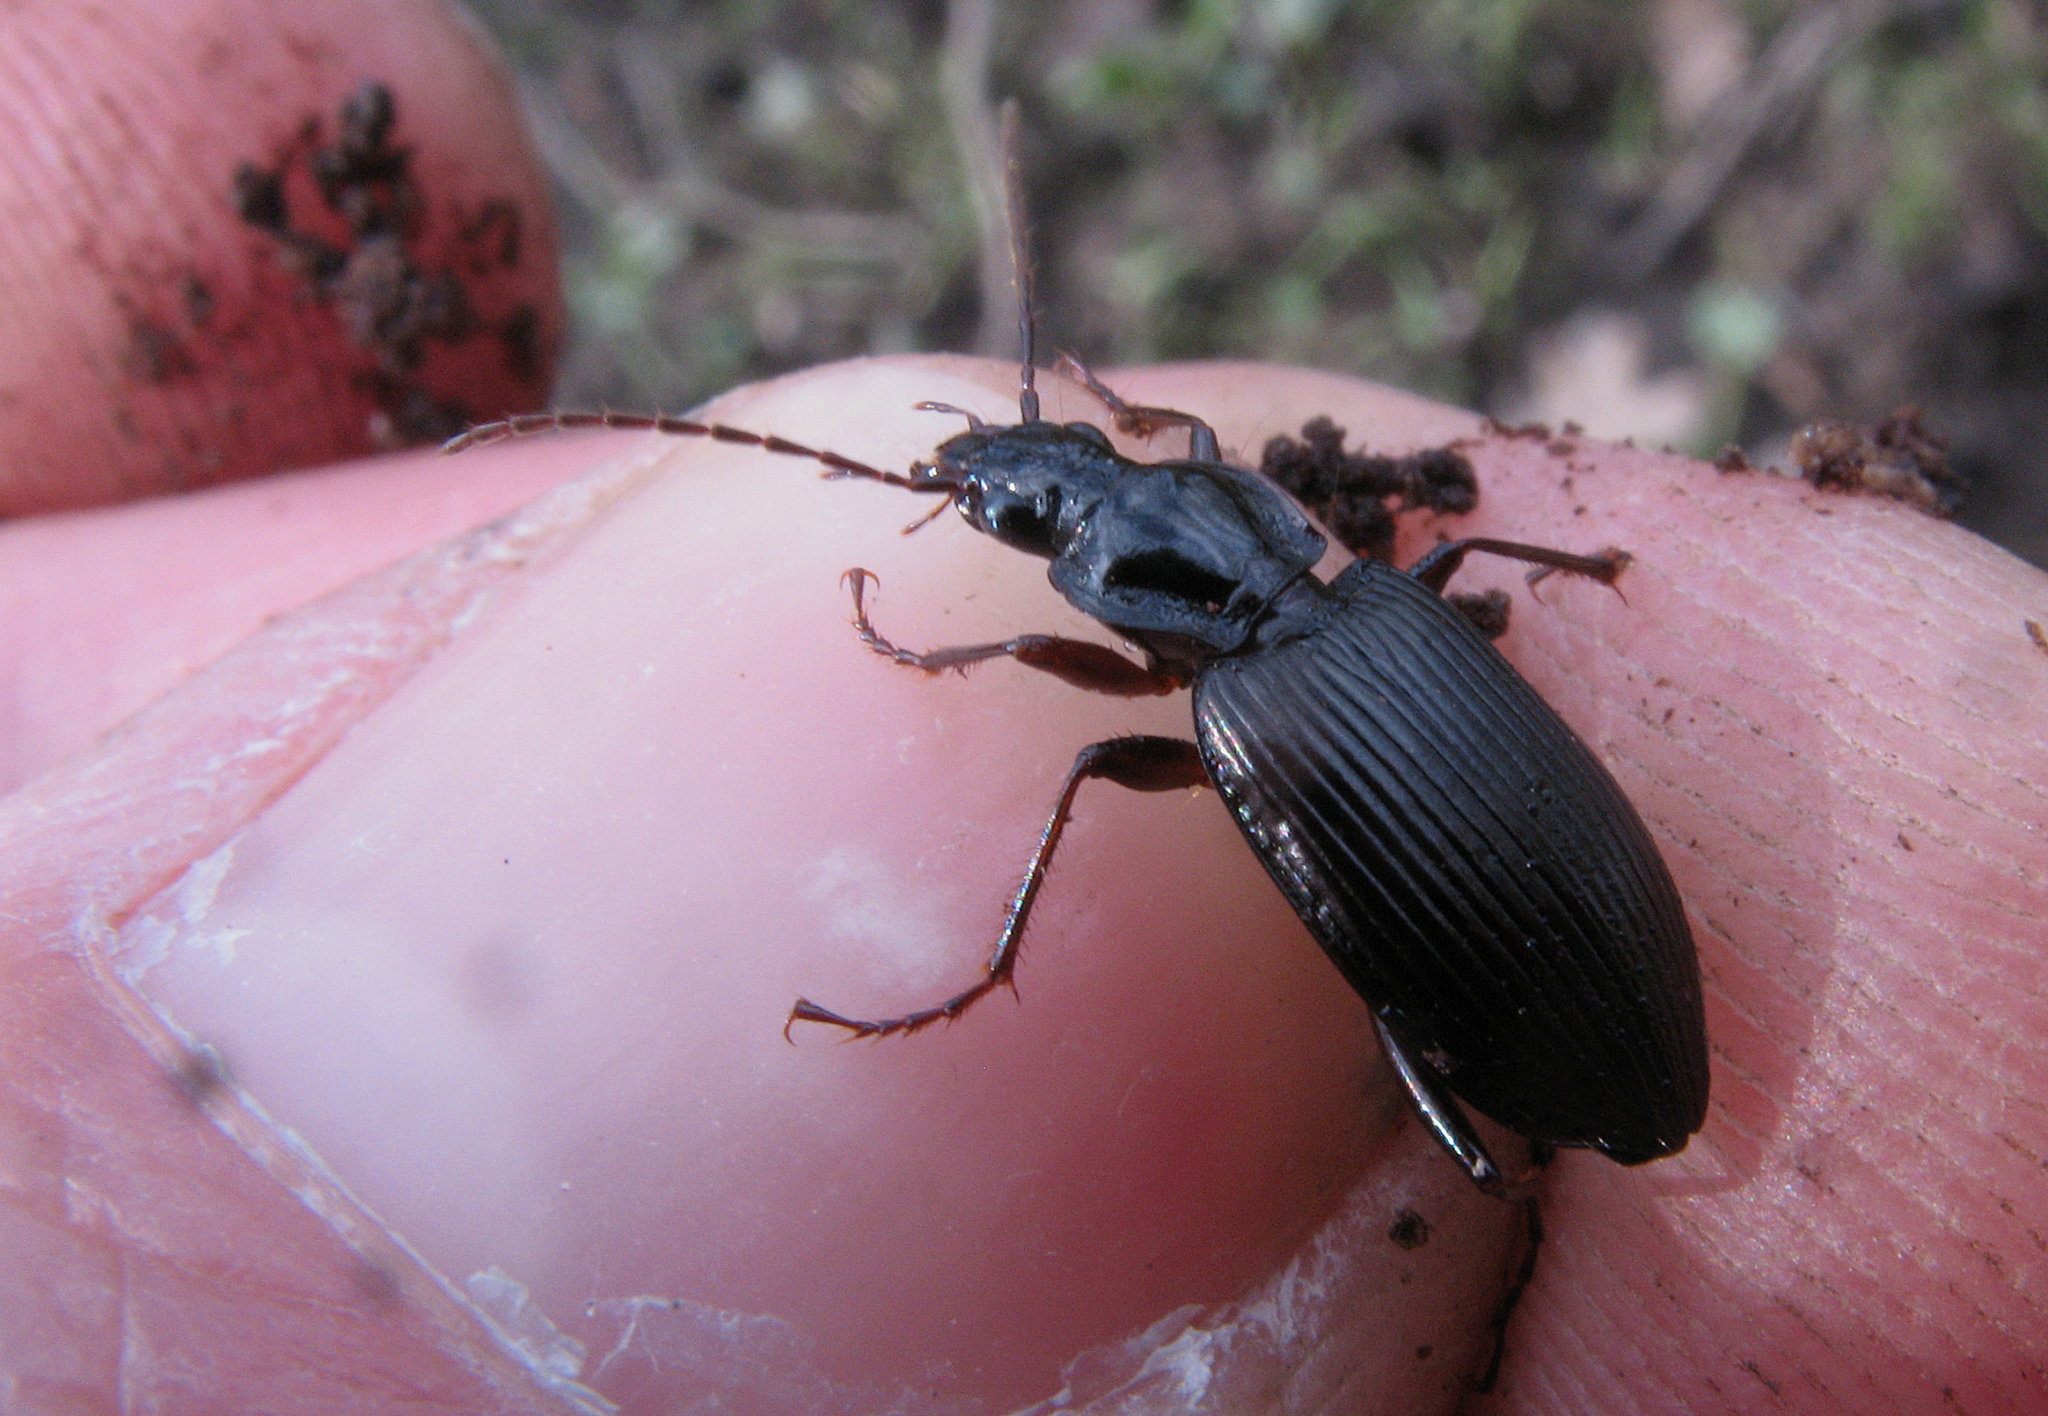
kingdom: Animalia
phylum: Arthropoda
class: Insecta
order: Coleoptera
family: Carabidae
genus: Platynus
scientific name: Platynus assimilis
